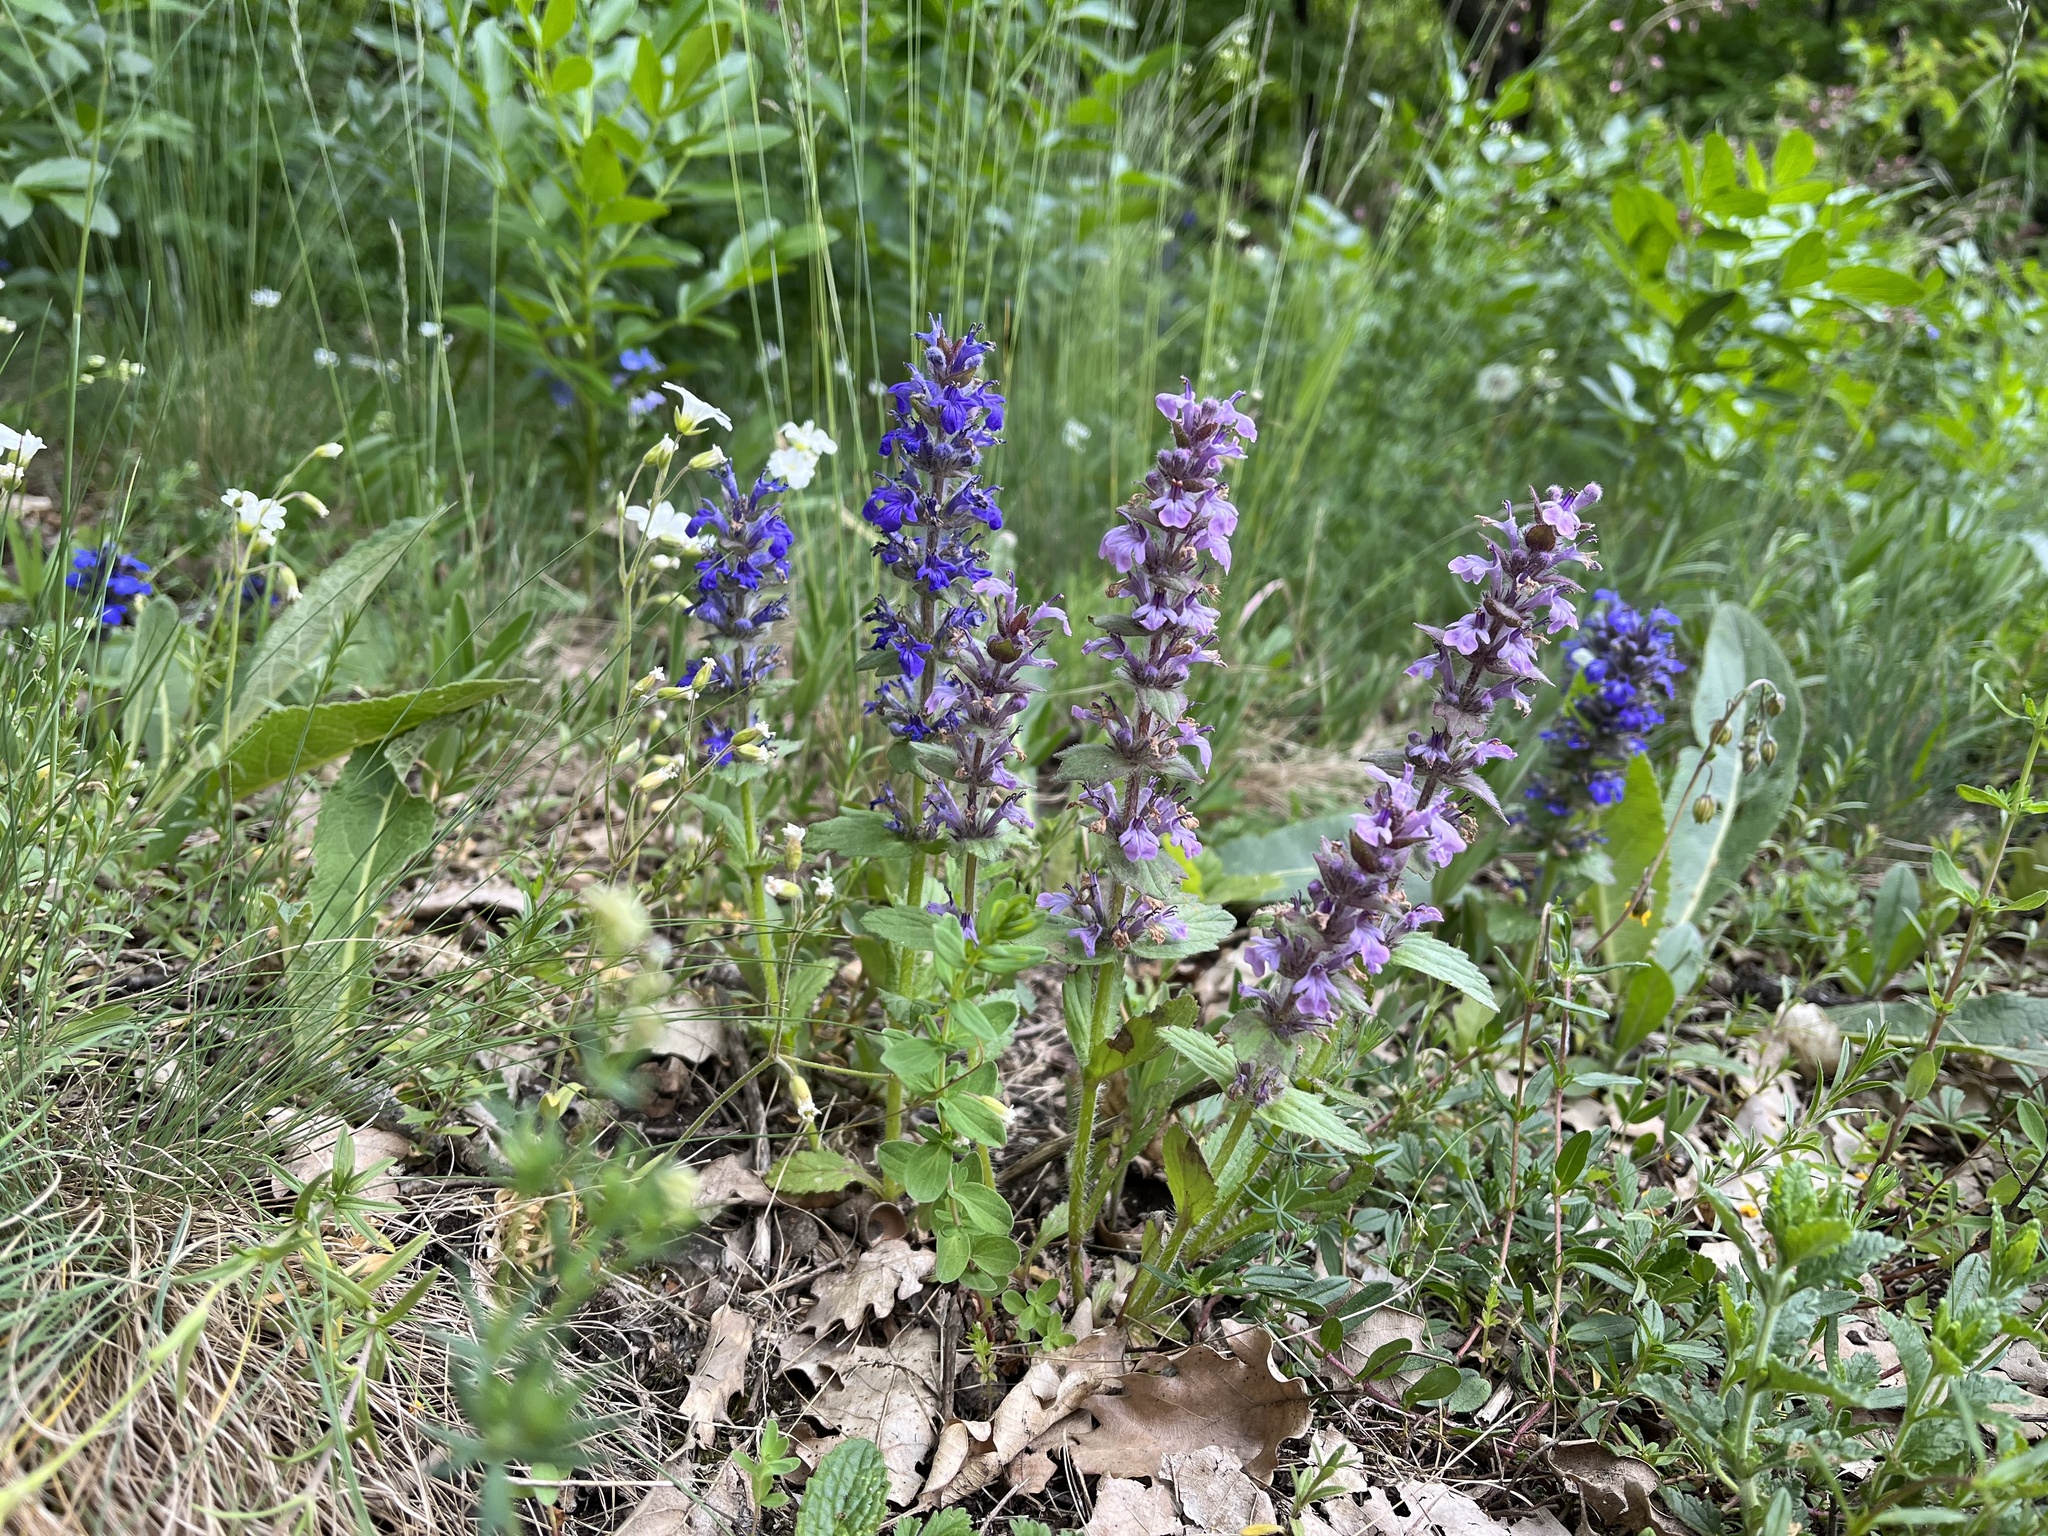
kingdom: Plantae
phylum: Tracheophyta
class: Magnoliopsida
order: Lamiales
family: Lamiaceae
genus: Ajuga
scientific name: Ajuga genevensis
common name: Blue bugle
